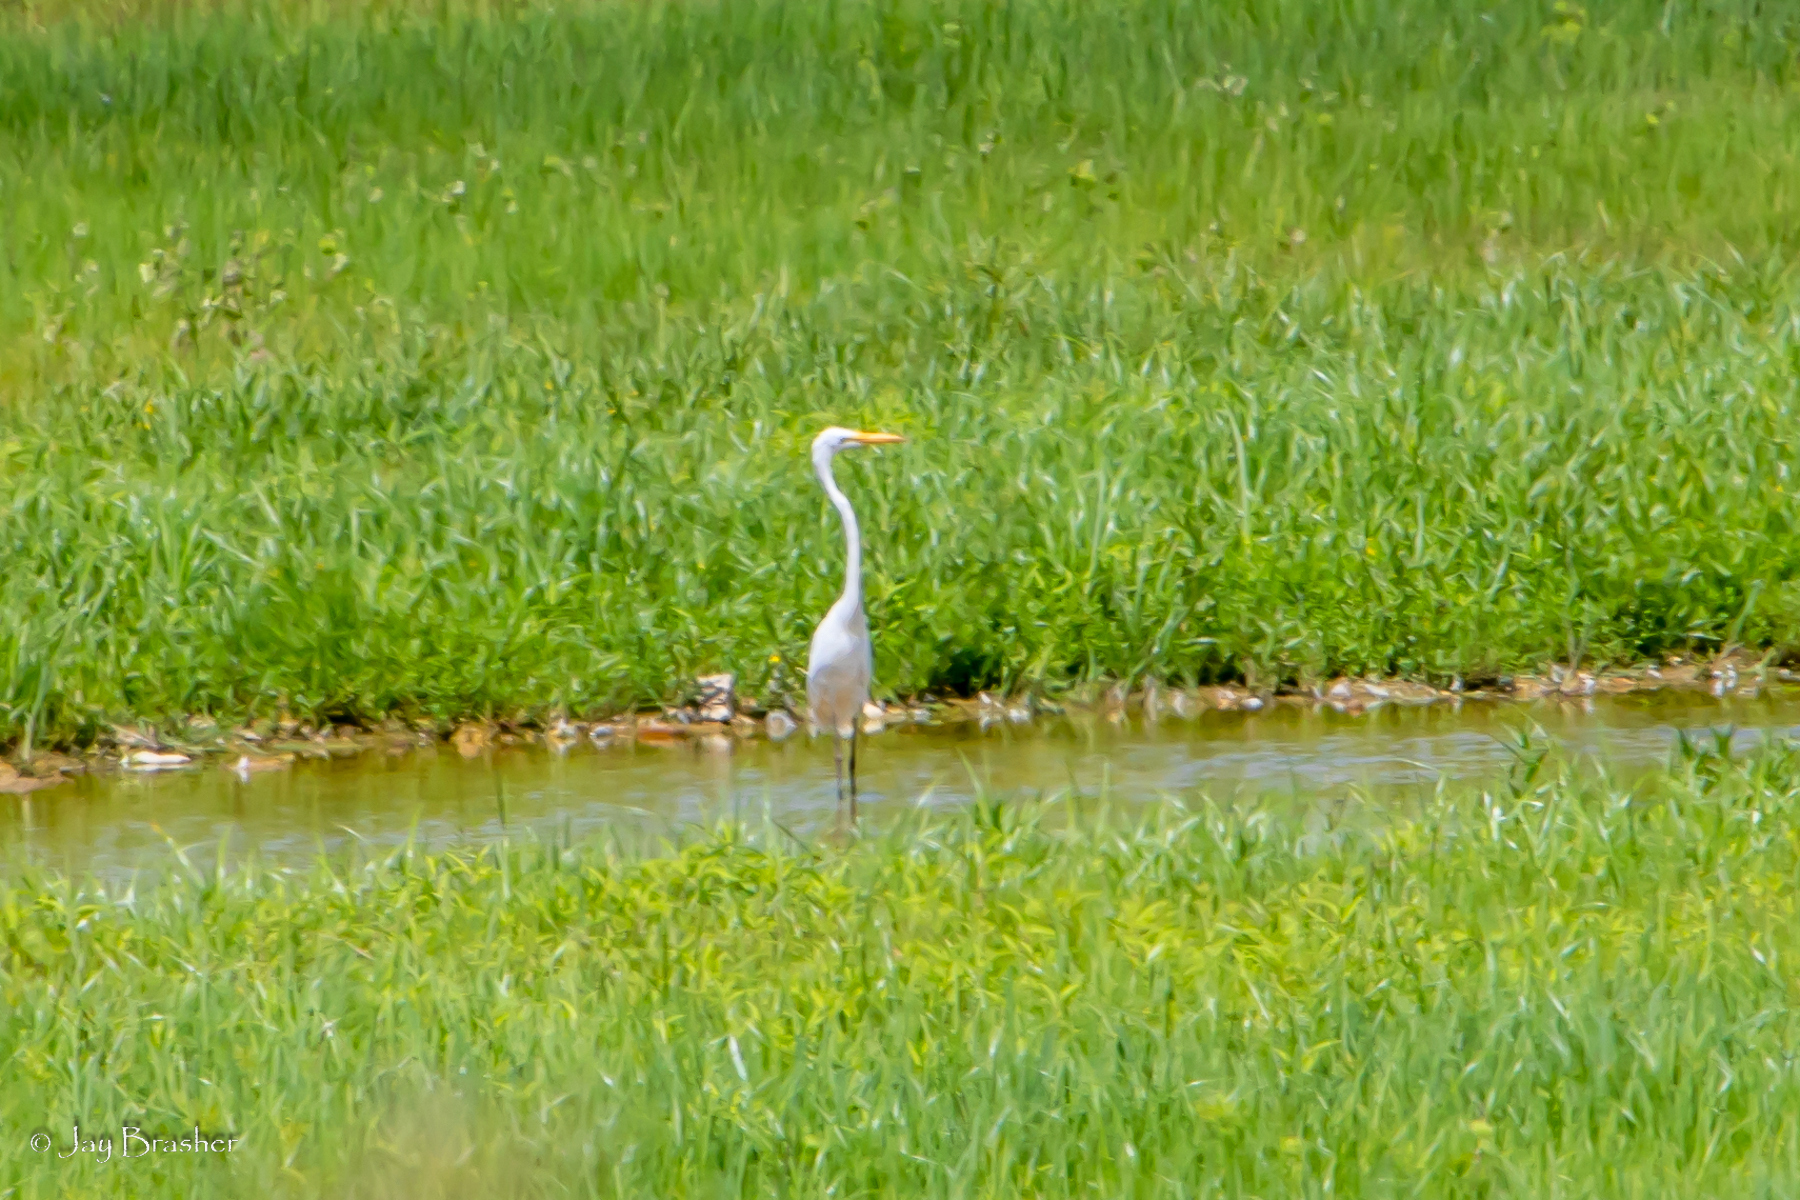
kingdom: Animalia
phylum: Chordata
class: Aves
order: Pelecaniformes
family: Ardeidae
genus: Ardea
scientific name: Ardea alba
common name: Great egret
